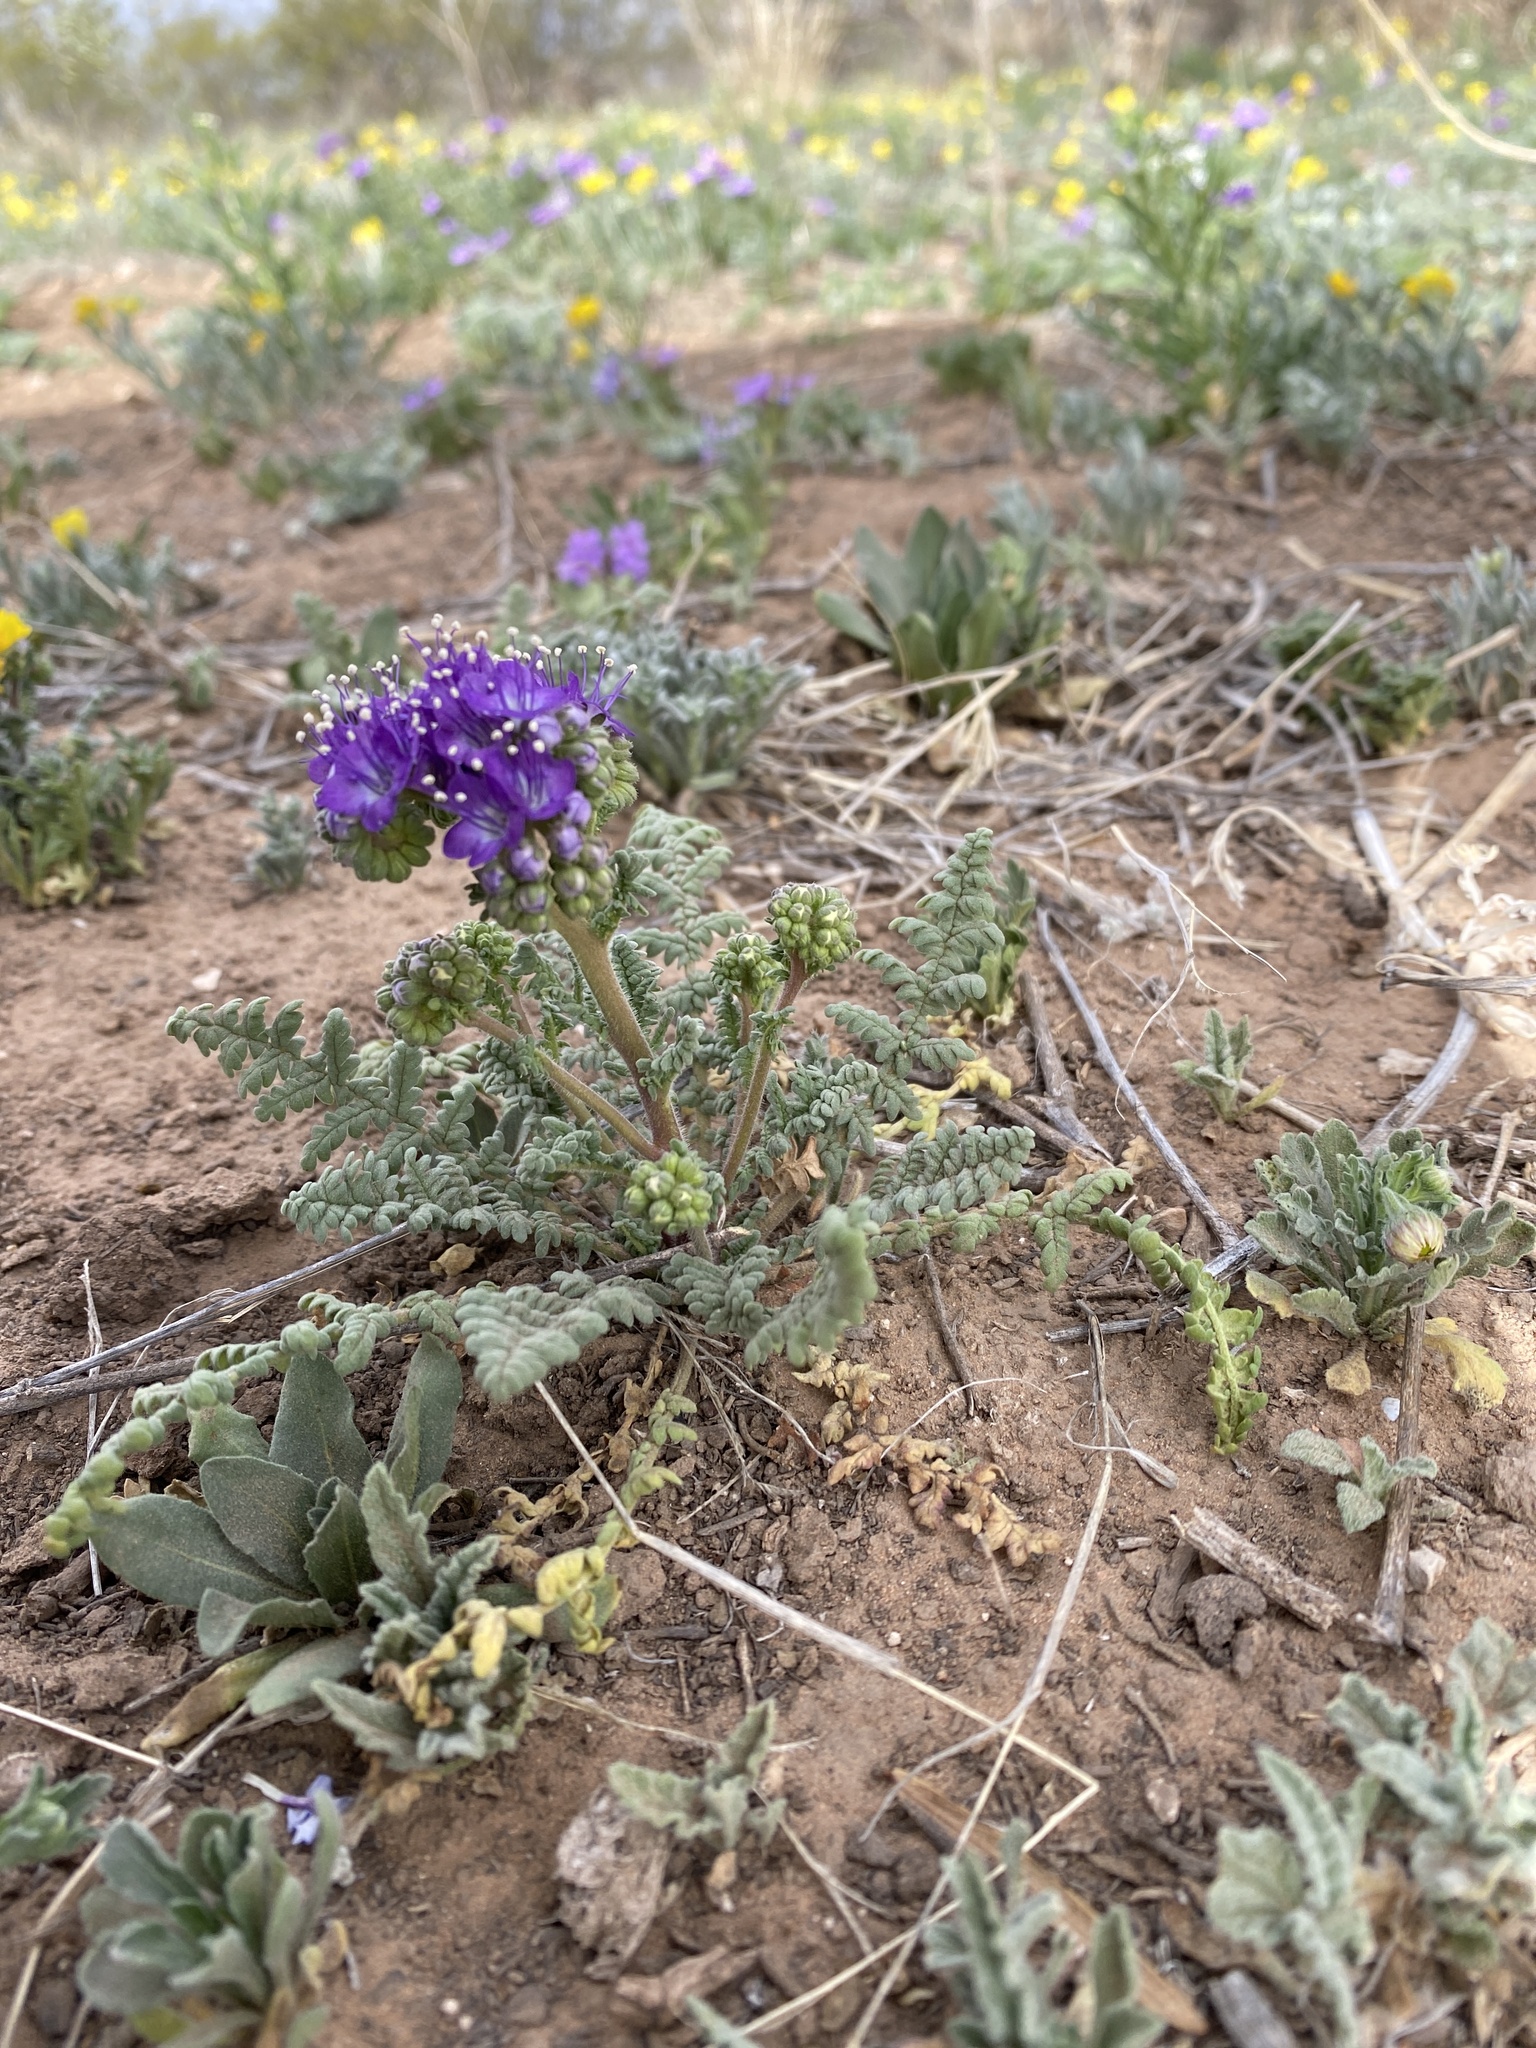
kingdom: Plantae
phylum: Tracheophyta
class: Magnoliopsida
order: Boraginales
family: Hydrophyllaceae
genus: Phacelia
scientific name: Phacelia popei
